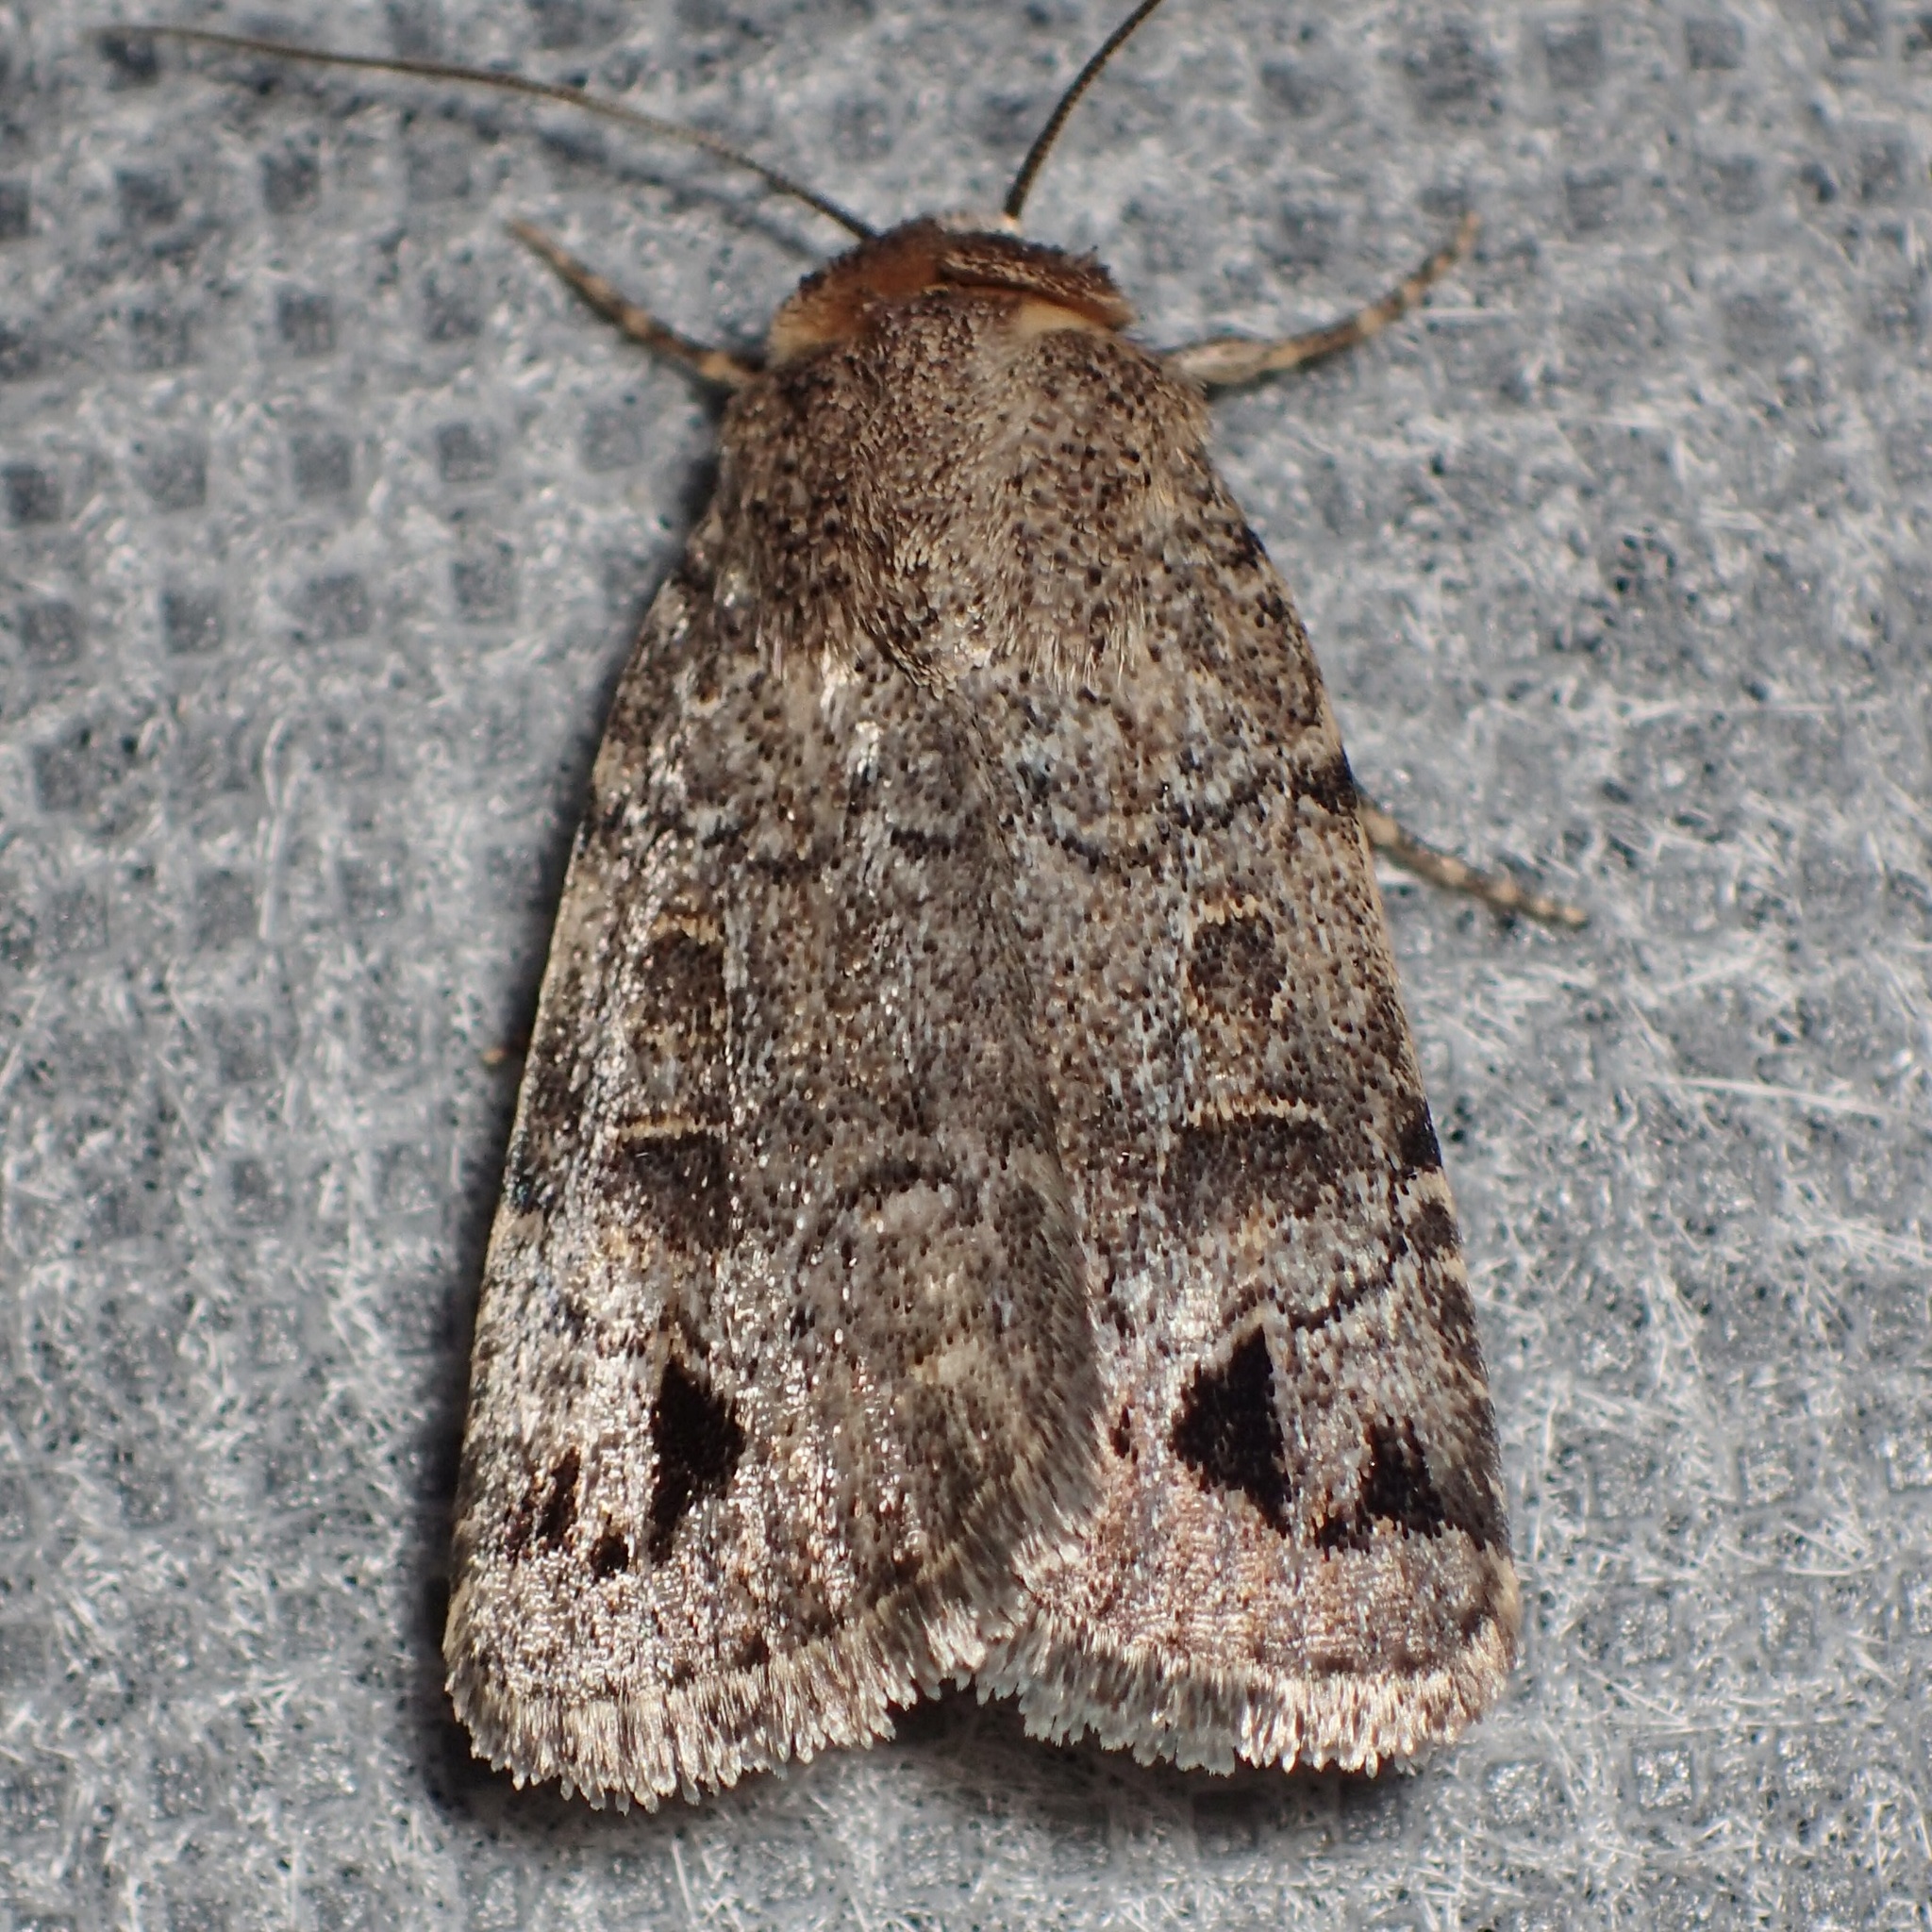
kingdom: Animalia
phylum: Arthropoda
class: Insecta
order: Lepidoptera
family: Noctuidae
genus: Anorthodes
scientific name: Anorthodes triquetra
